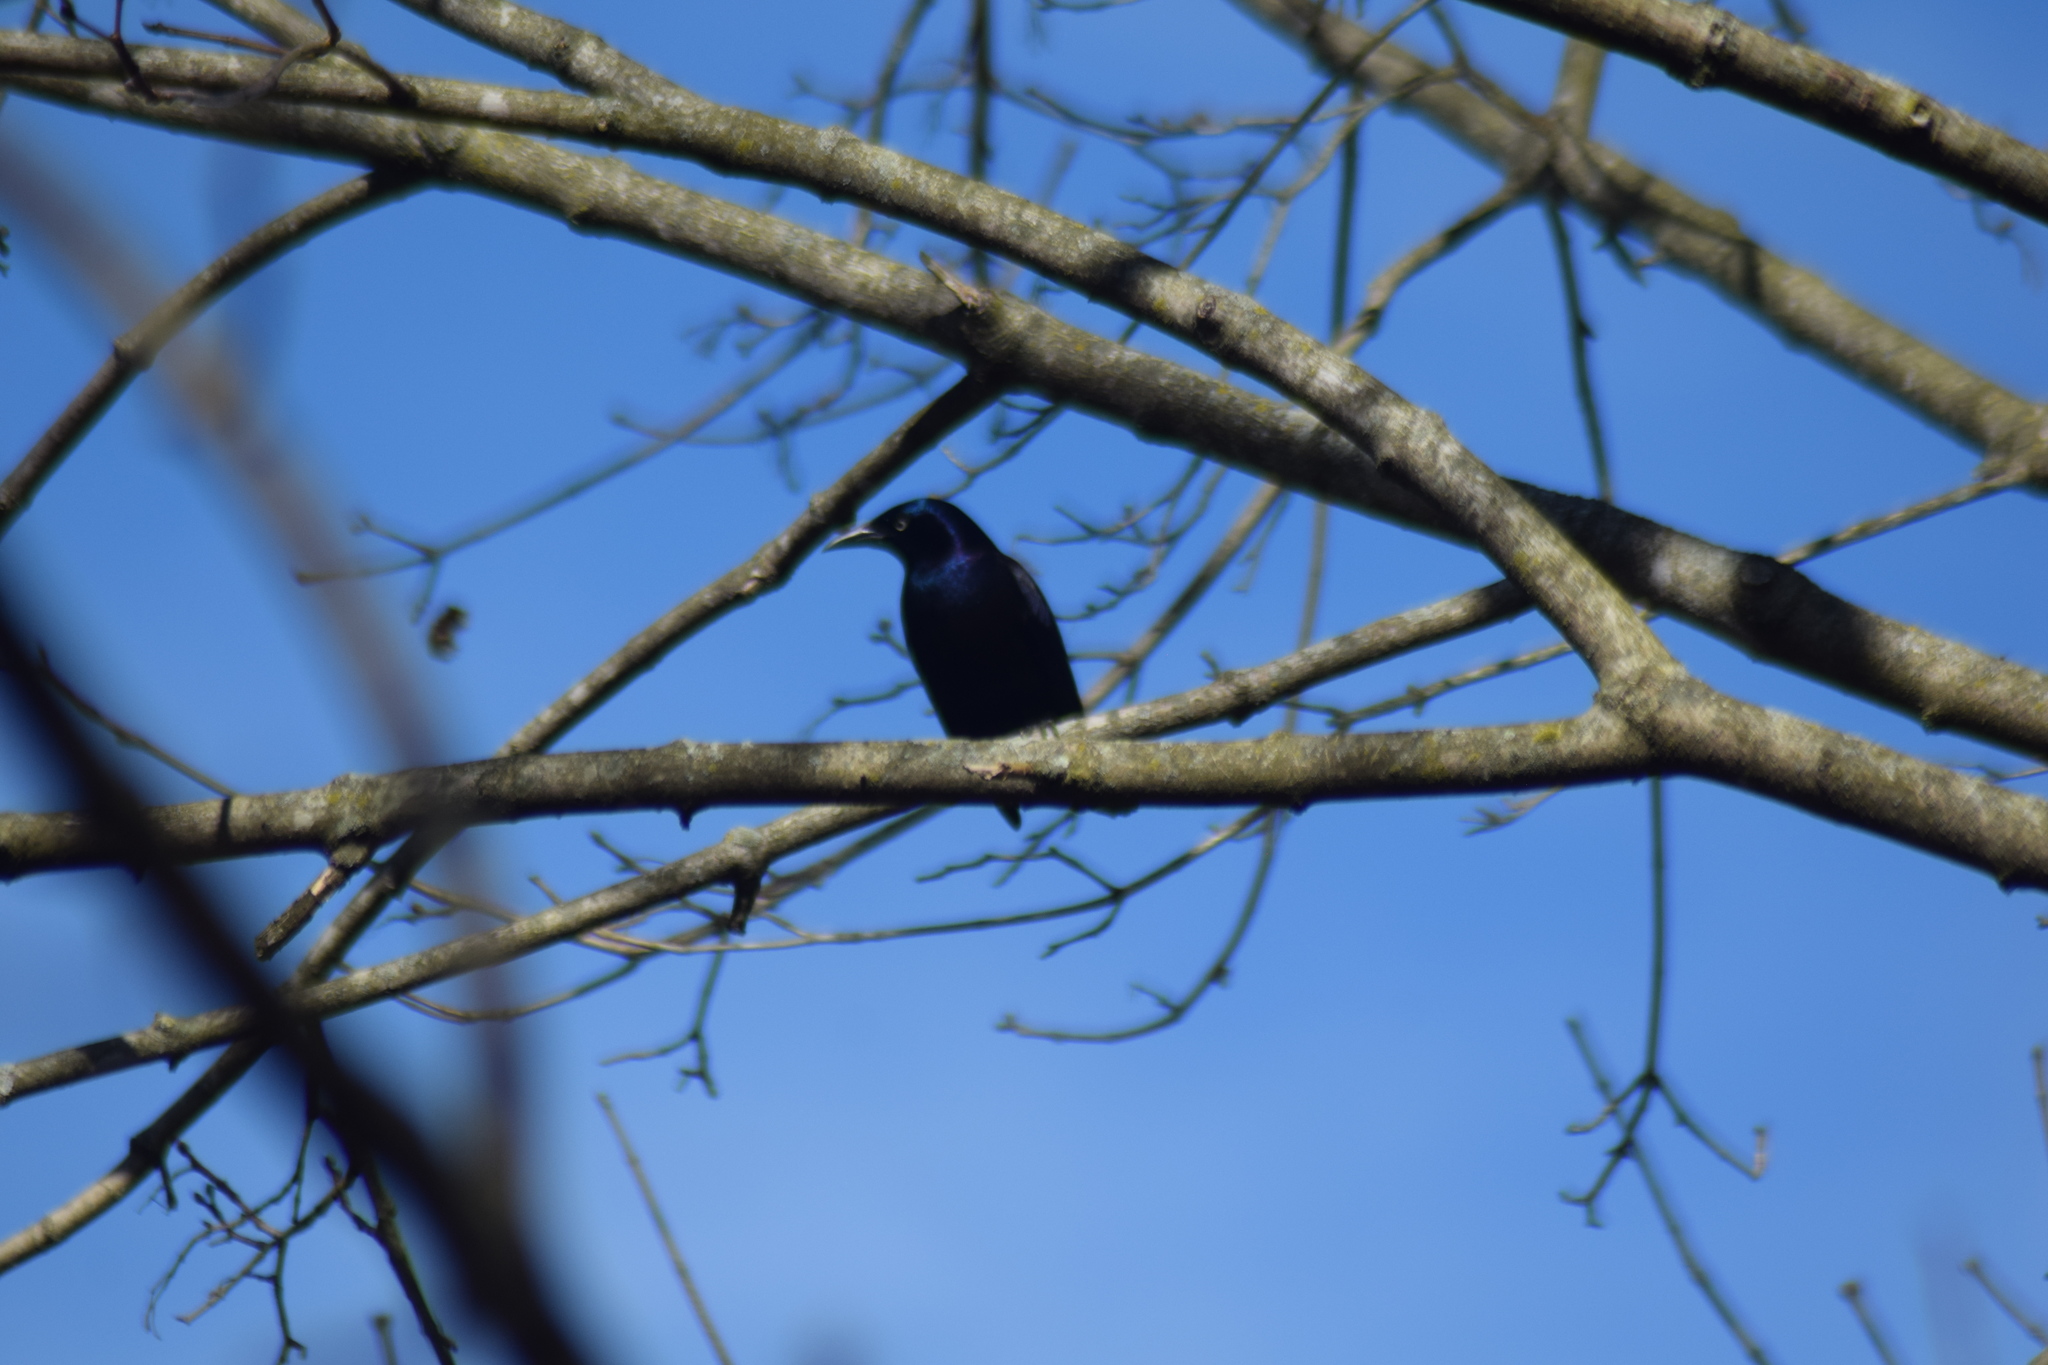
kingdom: Animalia
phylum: Chordata
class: Aves
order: Passeriformes
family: Icteridae
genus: Quiscalus
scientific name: Quiscalus quiscula
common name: Common grackle
